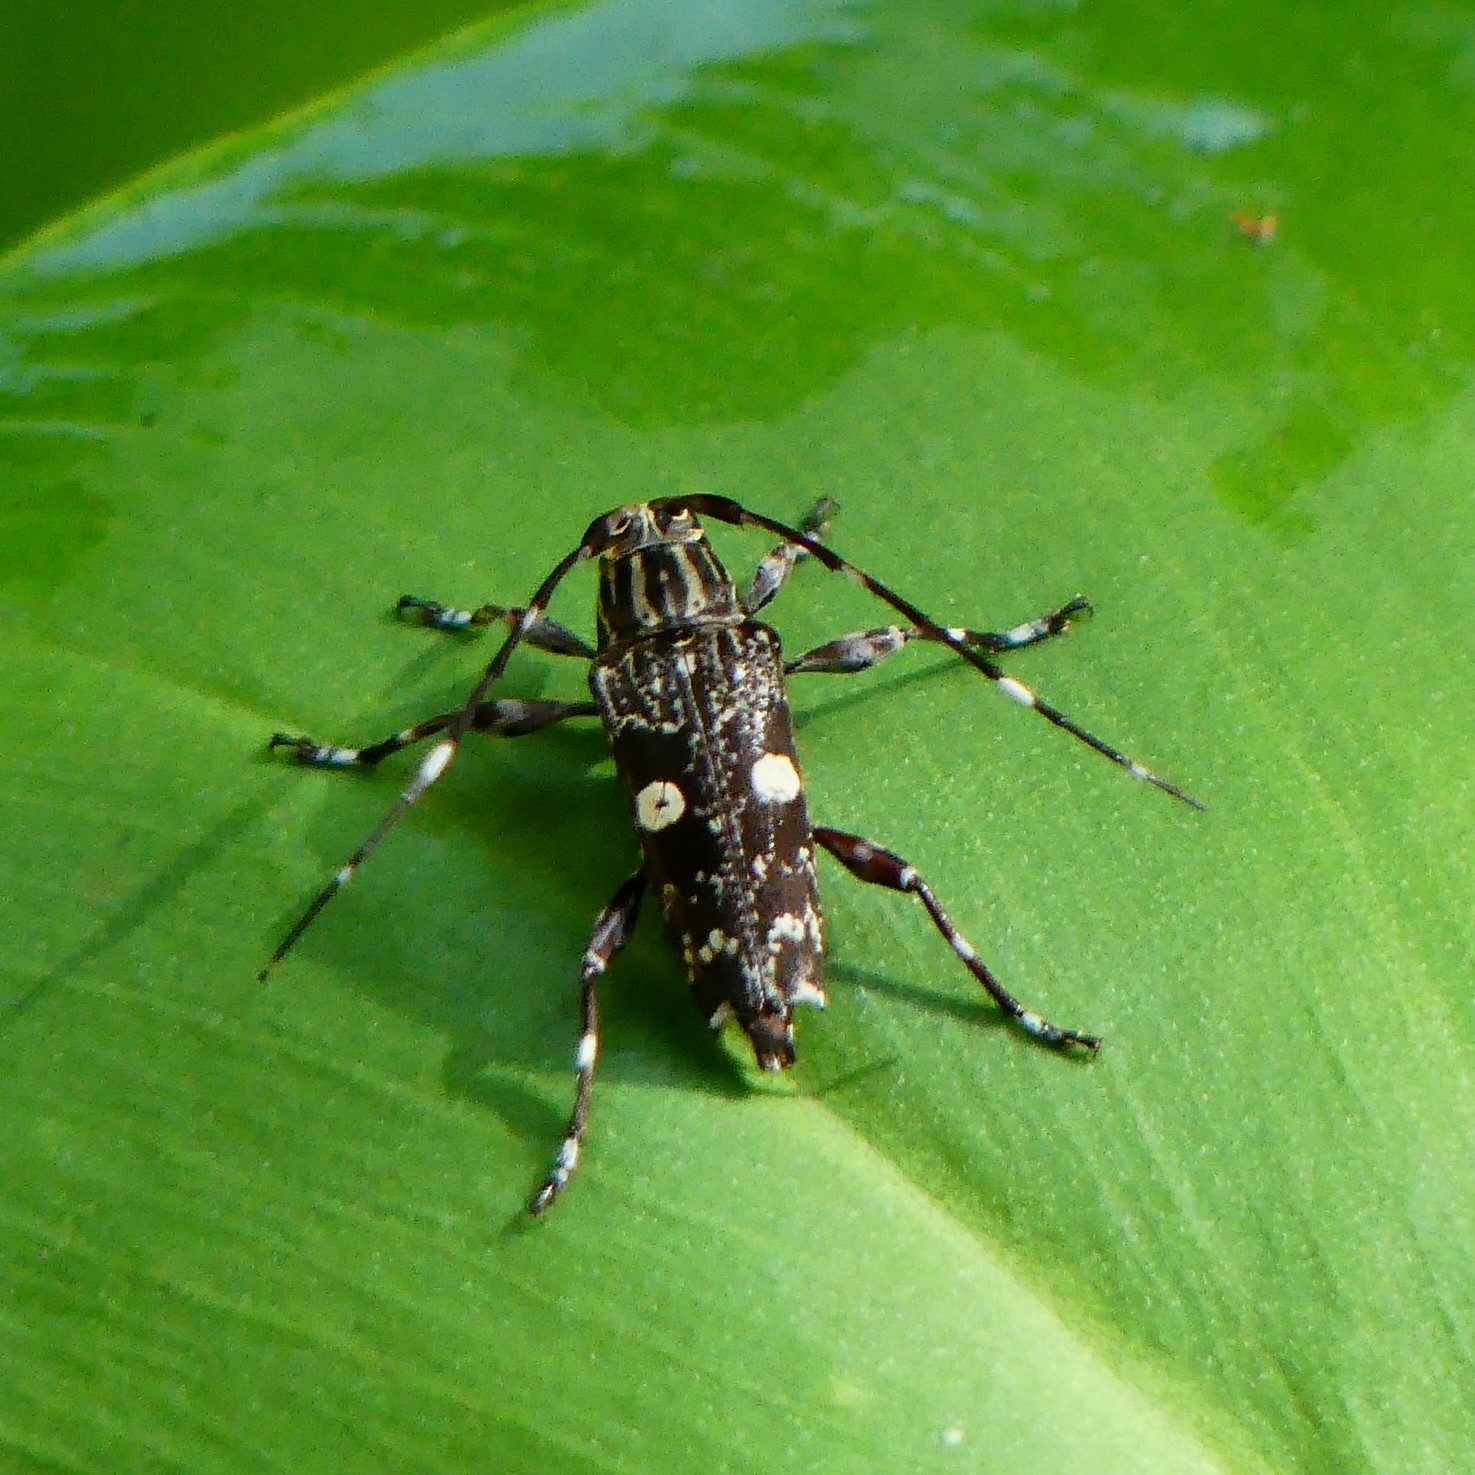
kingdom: Animalia
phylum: Arthropoda
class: Insecta
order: Coleoptera
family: Cerambycidae
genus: Colobothea
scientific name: Colobothea bisignata
